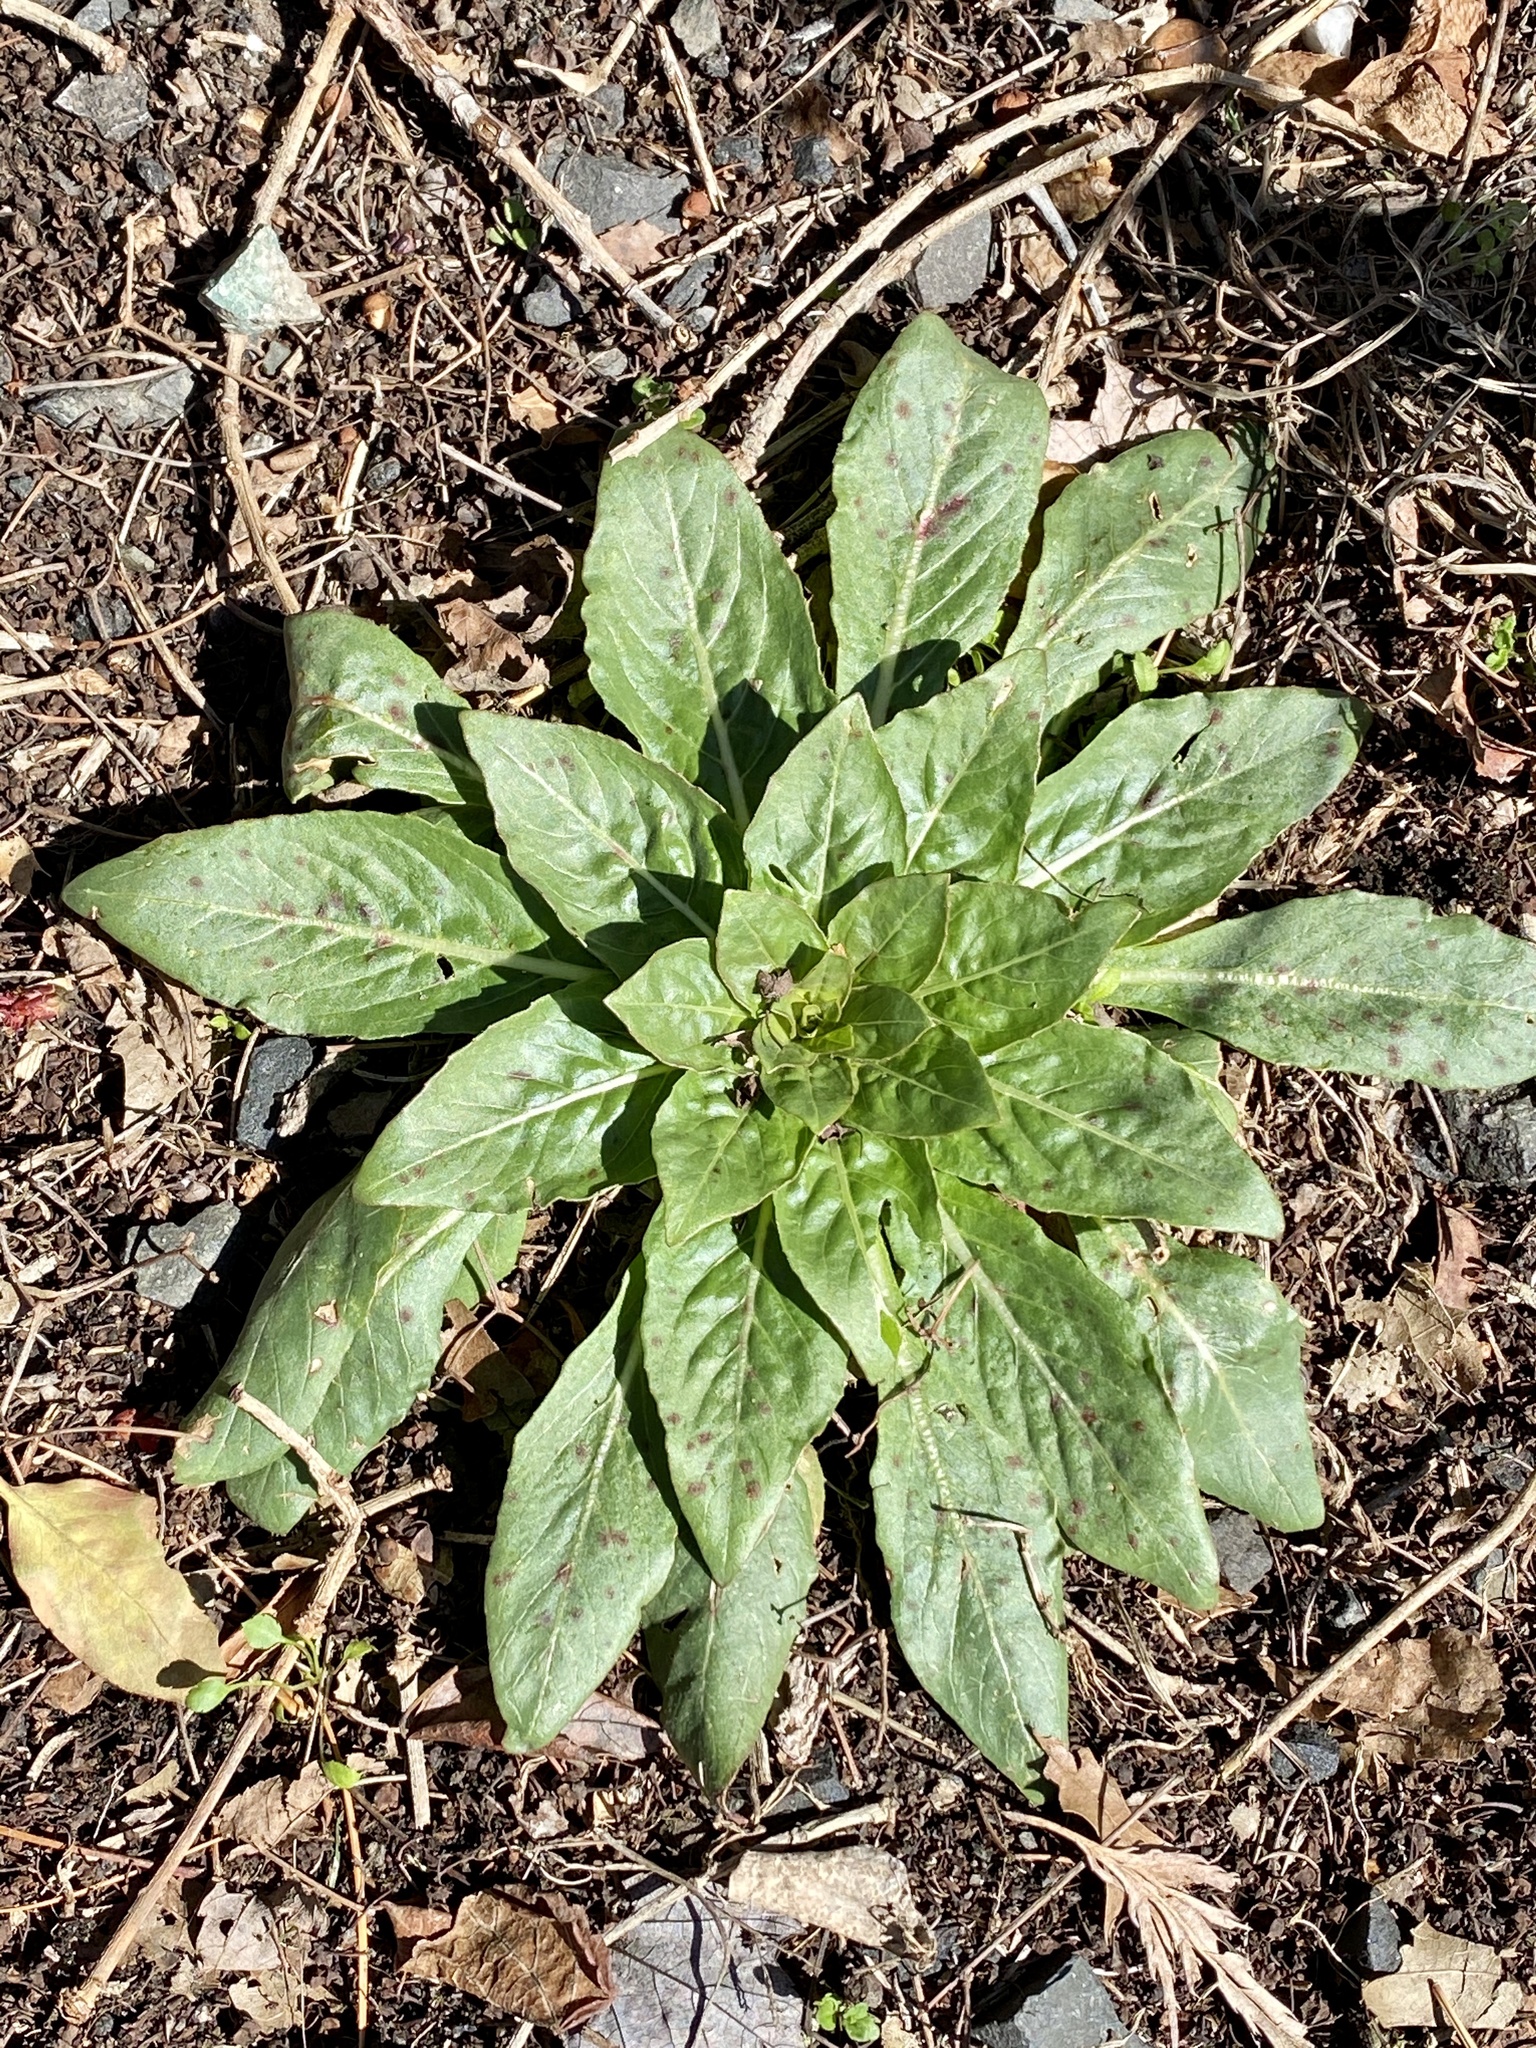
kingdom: Plantae
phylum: Tracheophyta
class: Magnoliopsida
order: Myrtales
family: Onagraceae
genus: Oenothera
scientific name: Oenothera biennis
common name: Common evening-primrose
